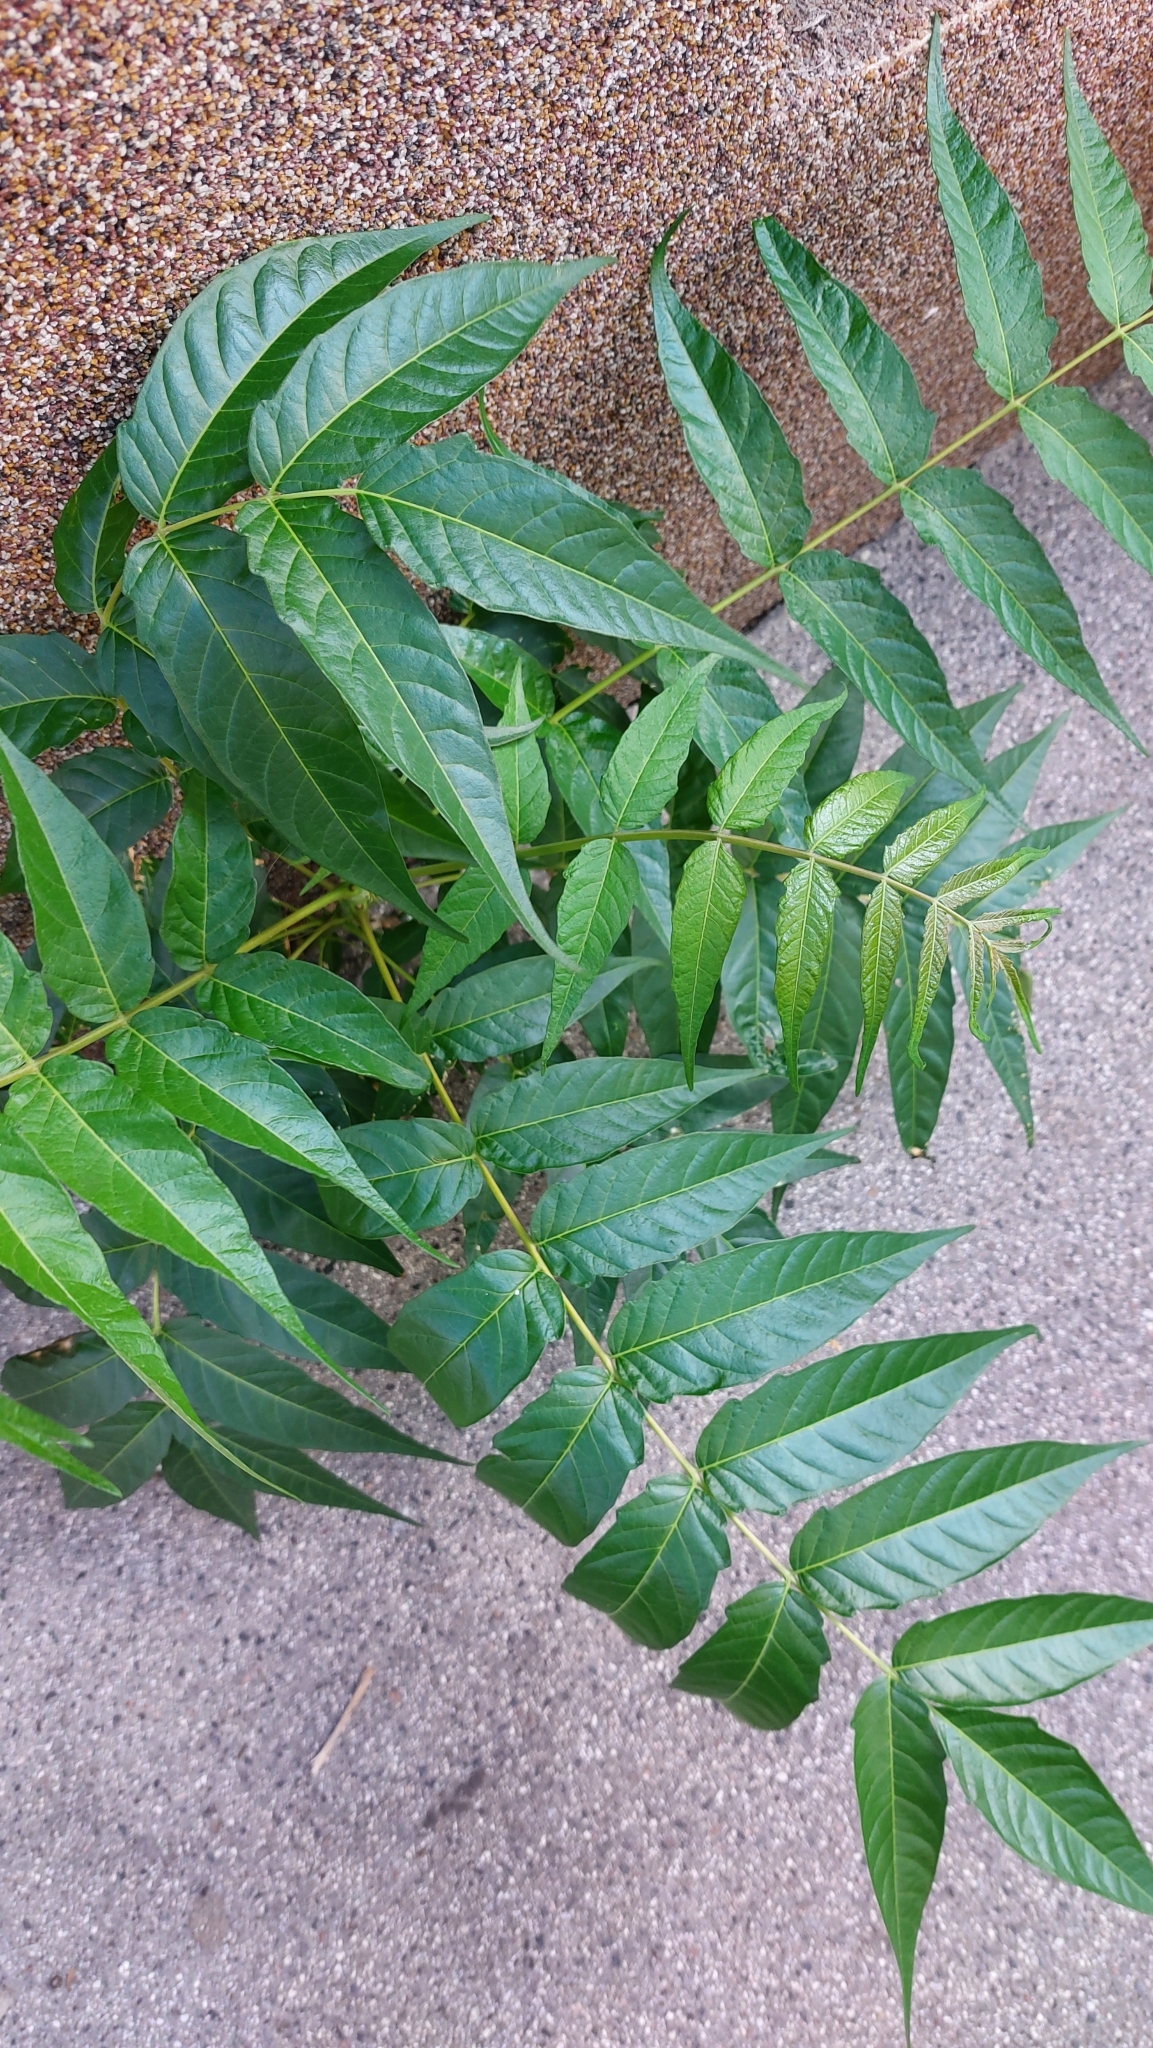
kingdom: Plantae
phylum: Tracheophyta
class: Magnoliopsida
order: Sapindales
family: Simaroubaceae
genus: Ailanthus
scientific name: Ailanthus altissima
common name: Tree-of-heaven
